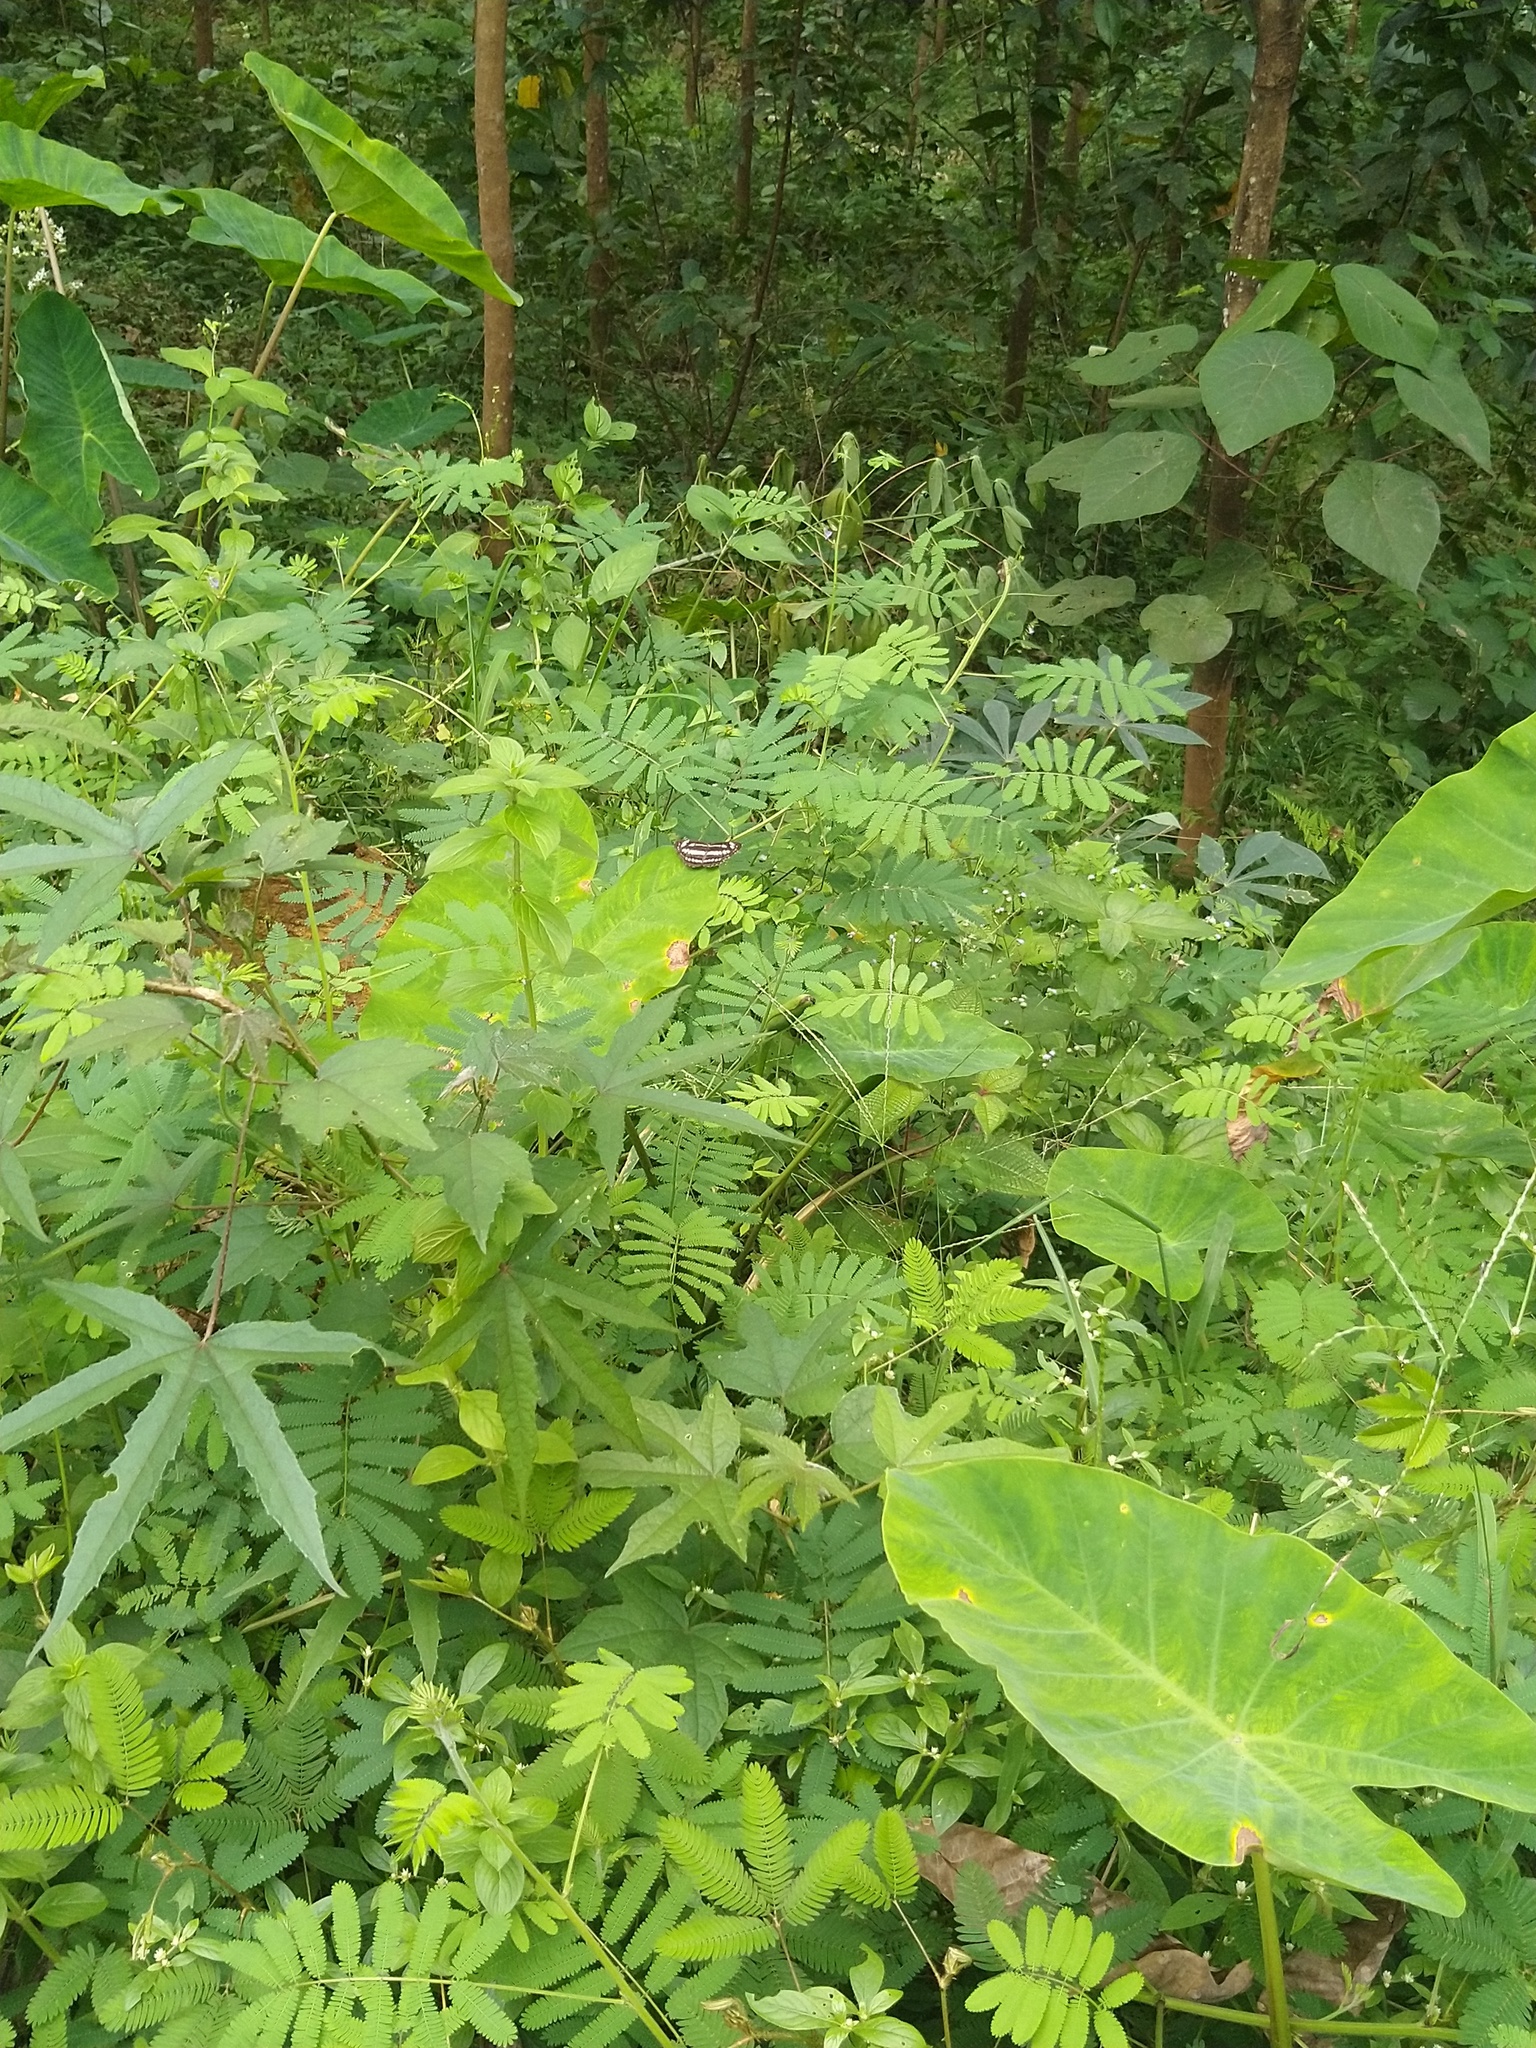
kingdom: Animalia
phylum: Arthropoda
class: Insecta
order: Lepidoptera
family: Nymphalidae
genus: Neptis
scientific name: Neptis hylas
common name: Common sailer
